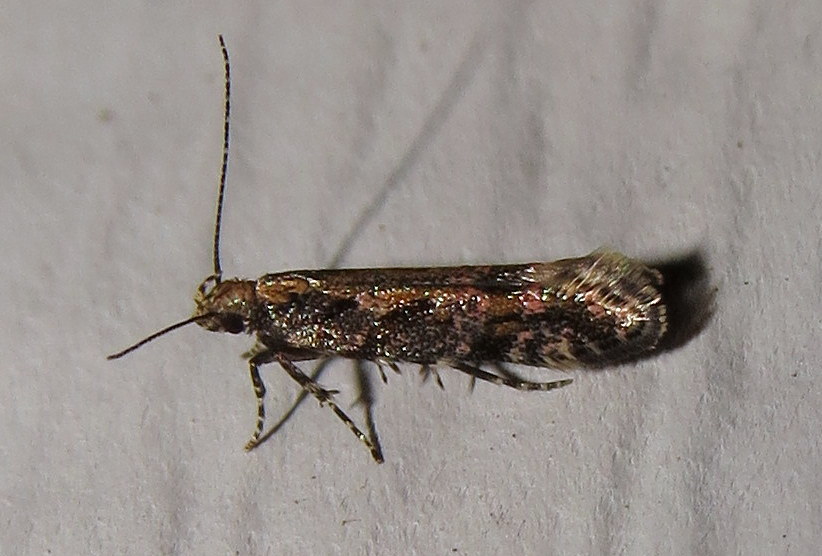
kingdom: Animalia
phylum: Arthropoda
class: Insecta
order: Lepidoptera
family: Gelechiidae
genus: Aristotelia
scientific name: Aristotelia rubidella
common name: Ruby aristotelia moth
